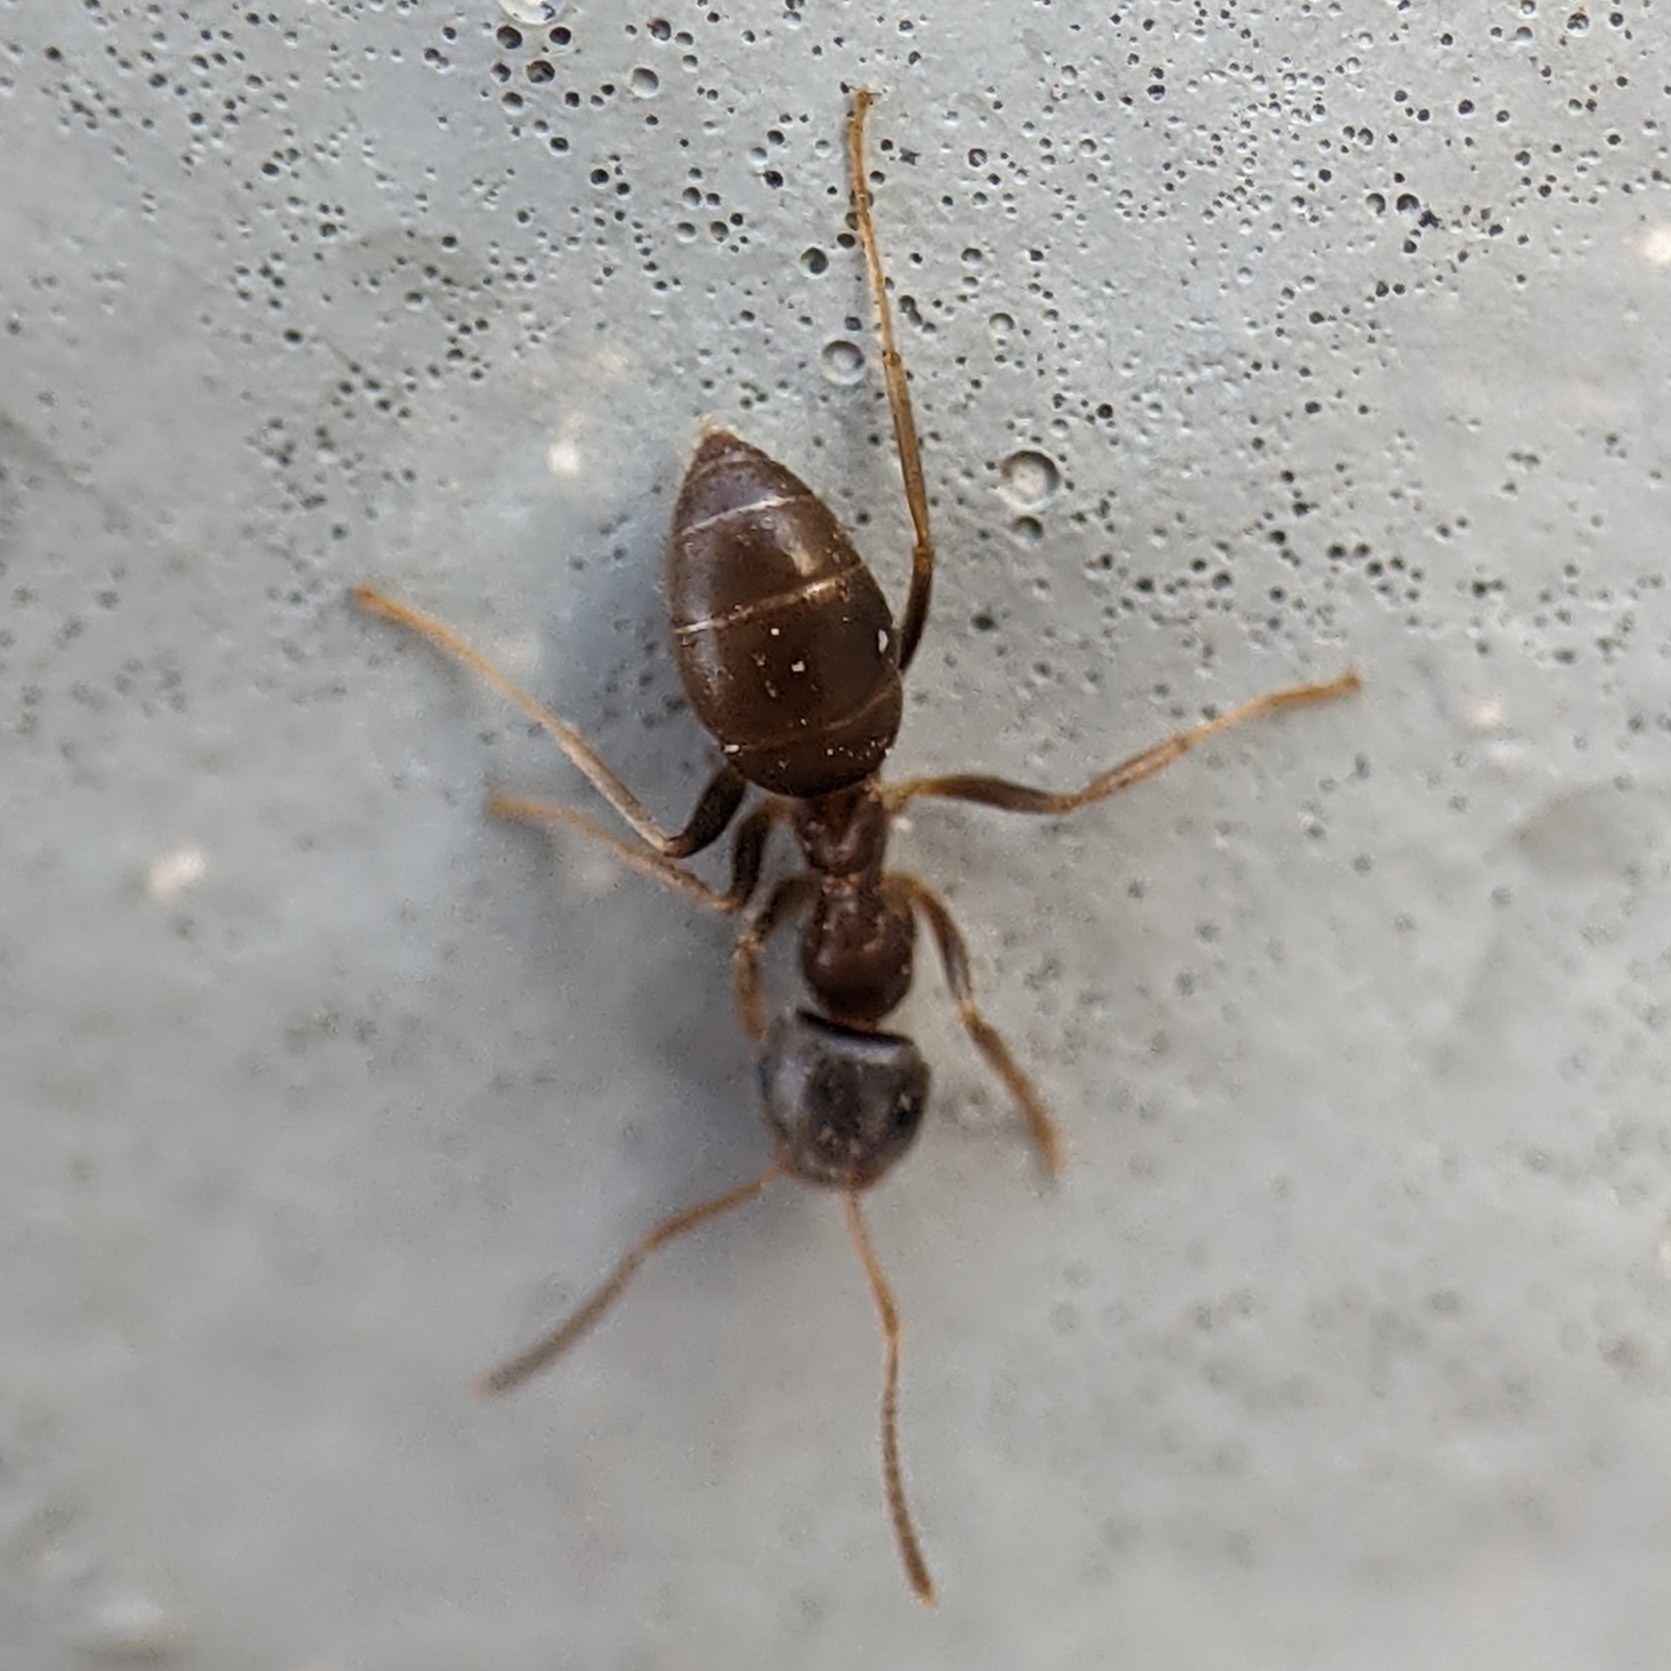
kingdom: Animalia
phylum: Arthropoda
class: Insecta
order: Hymenoptera
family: Formicidae
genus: Lasius
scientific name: Lasius neoniger
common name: Turfgrass ant
